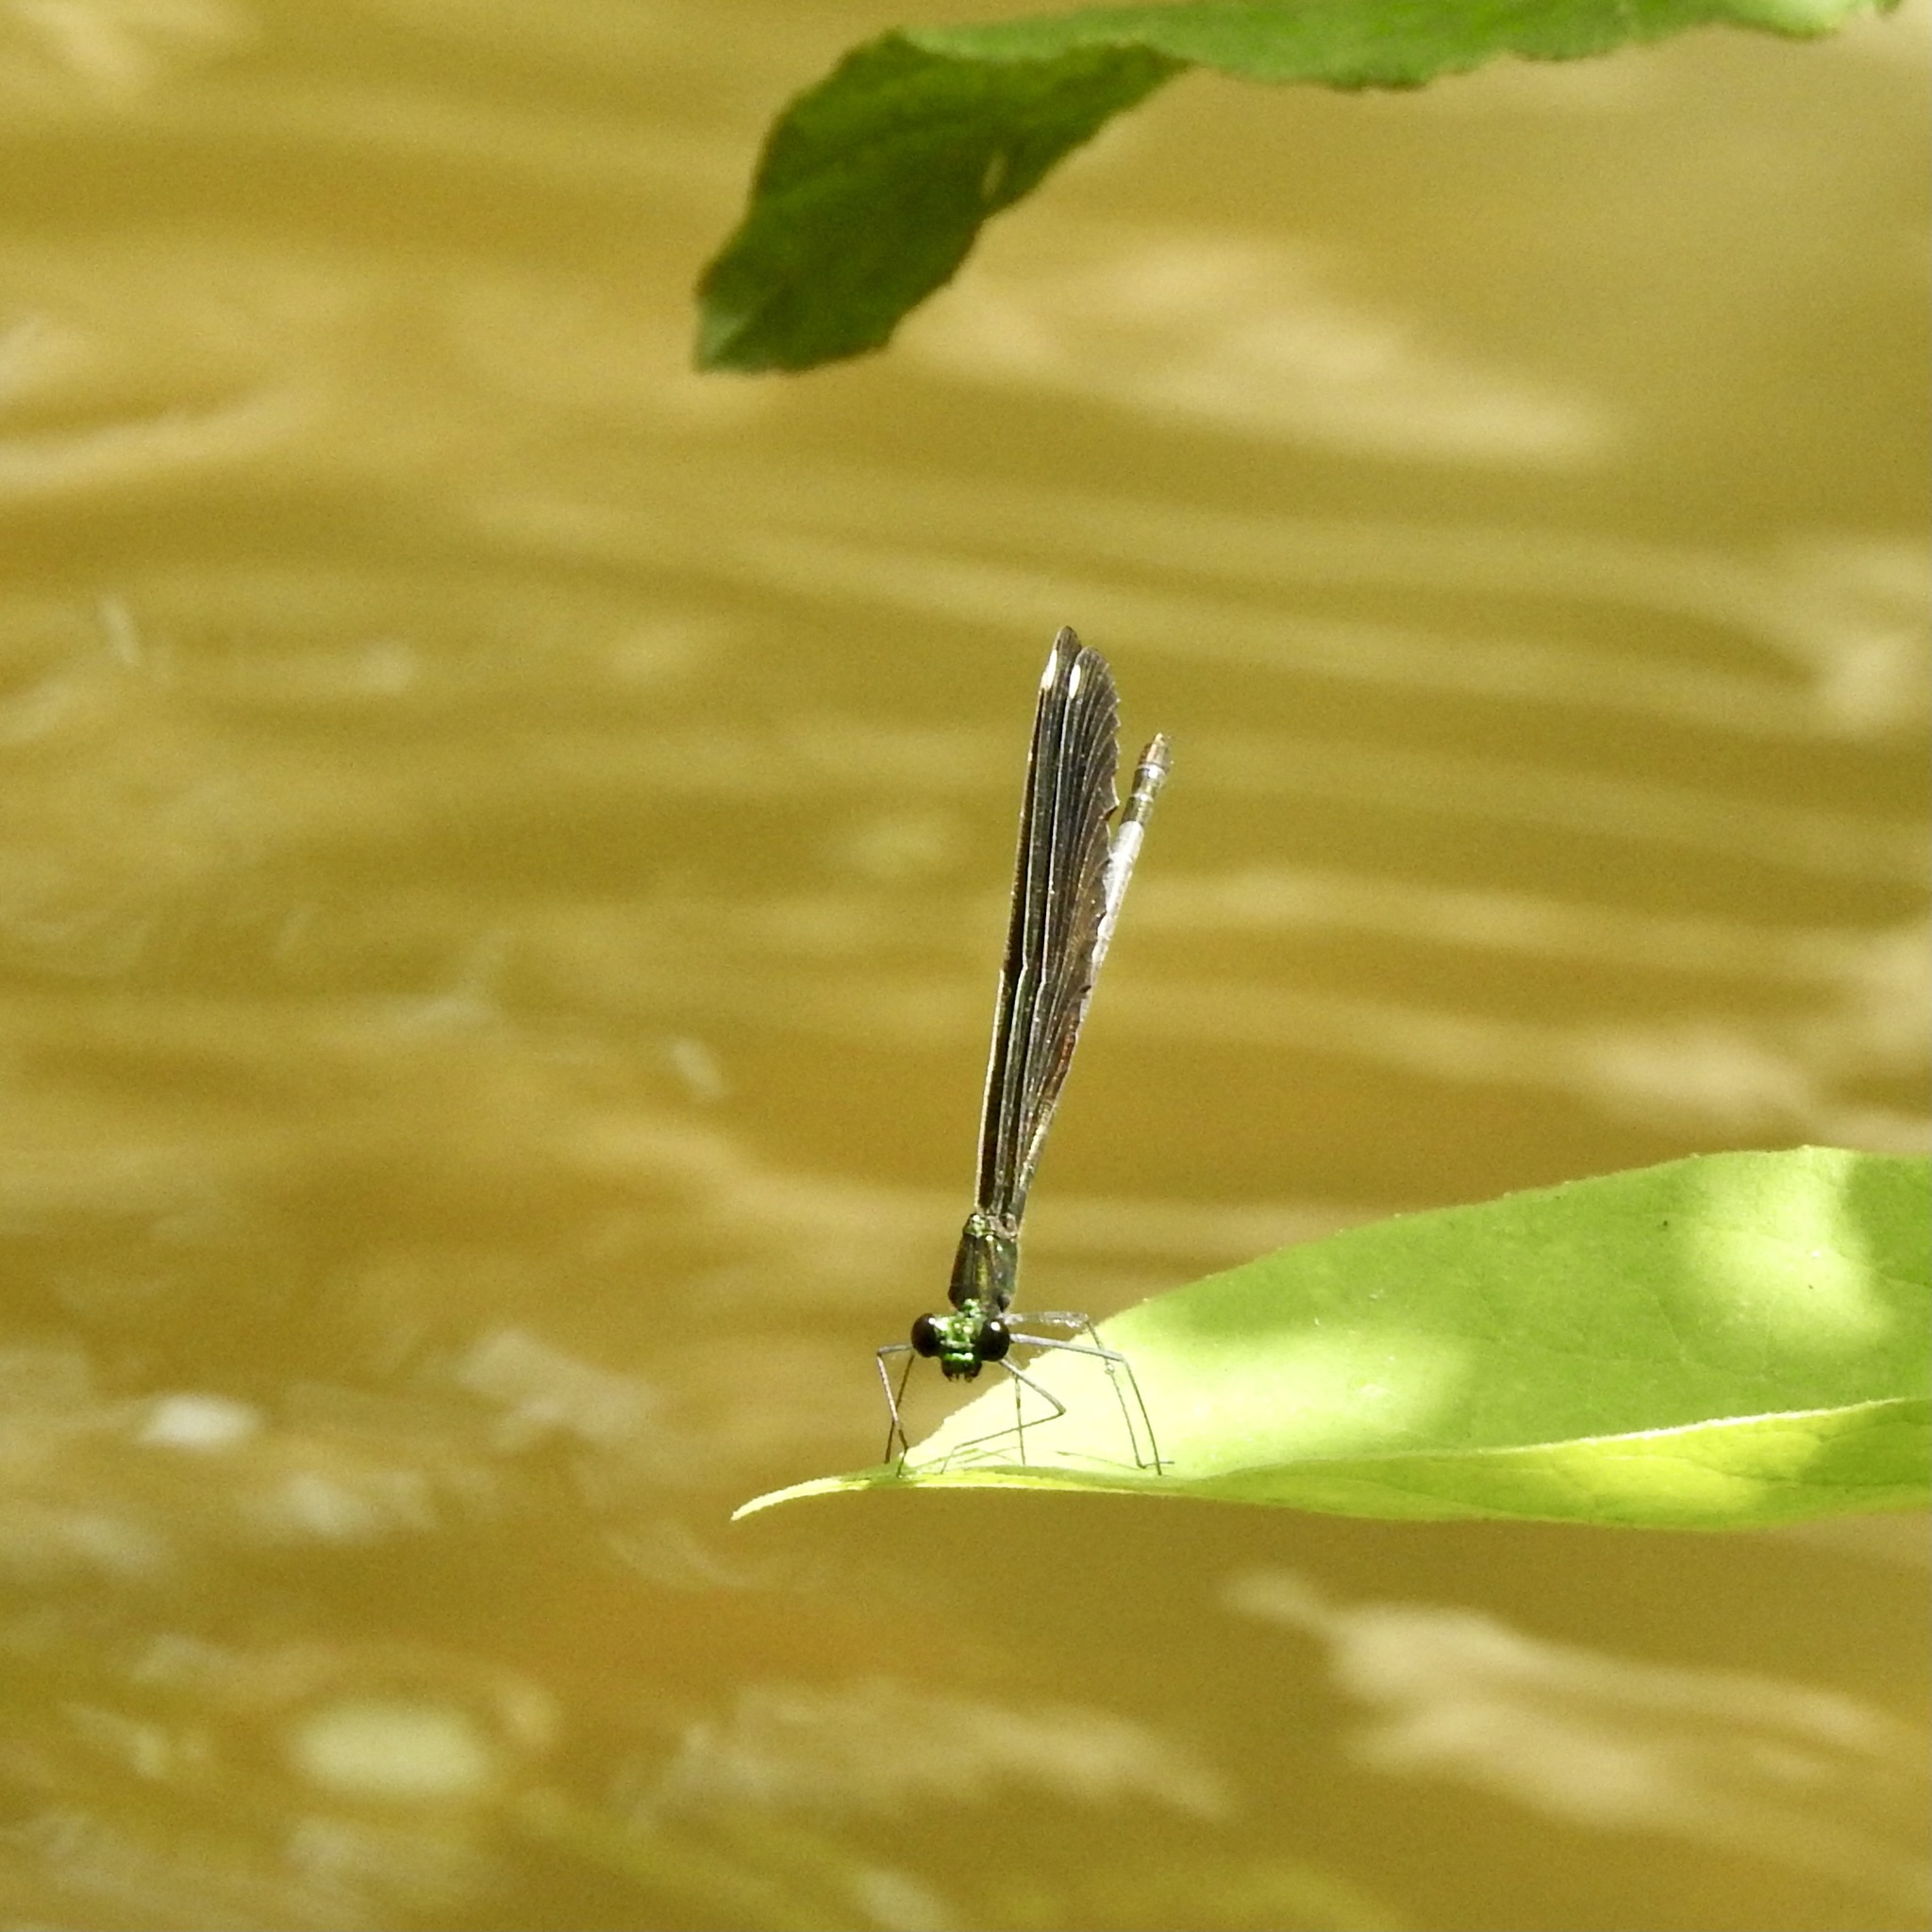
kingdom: Animalia
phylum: Arthropoda
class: Insecta
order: Odonata
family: Calopterygidae
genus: Calopteryx
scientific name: Calopteryx maculata
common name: Ebony jewelwing
